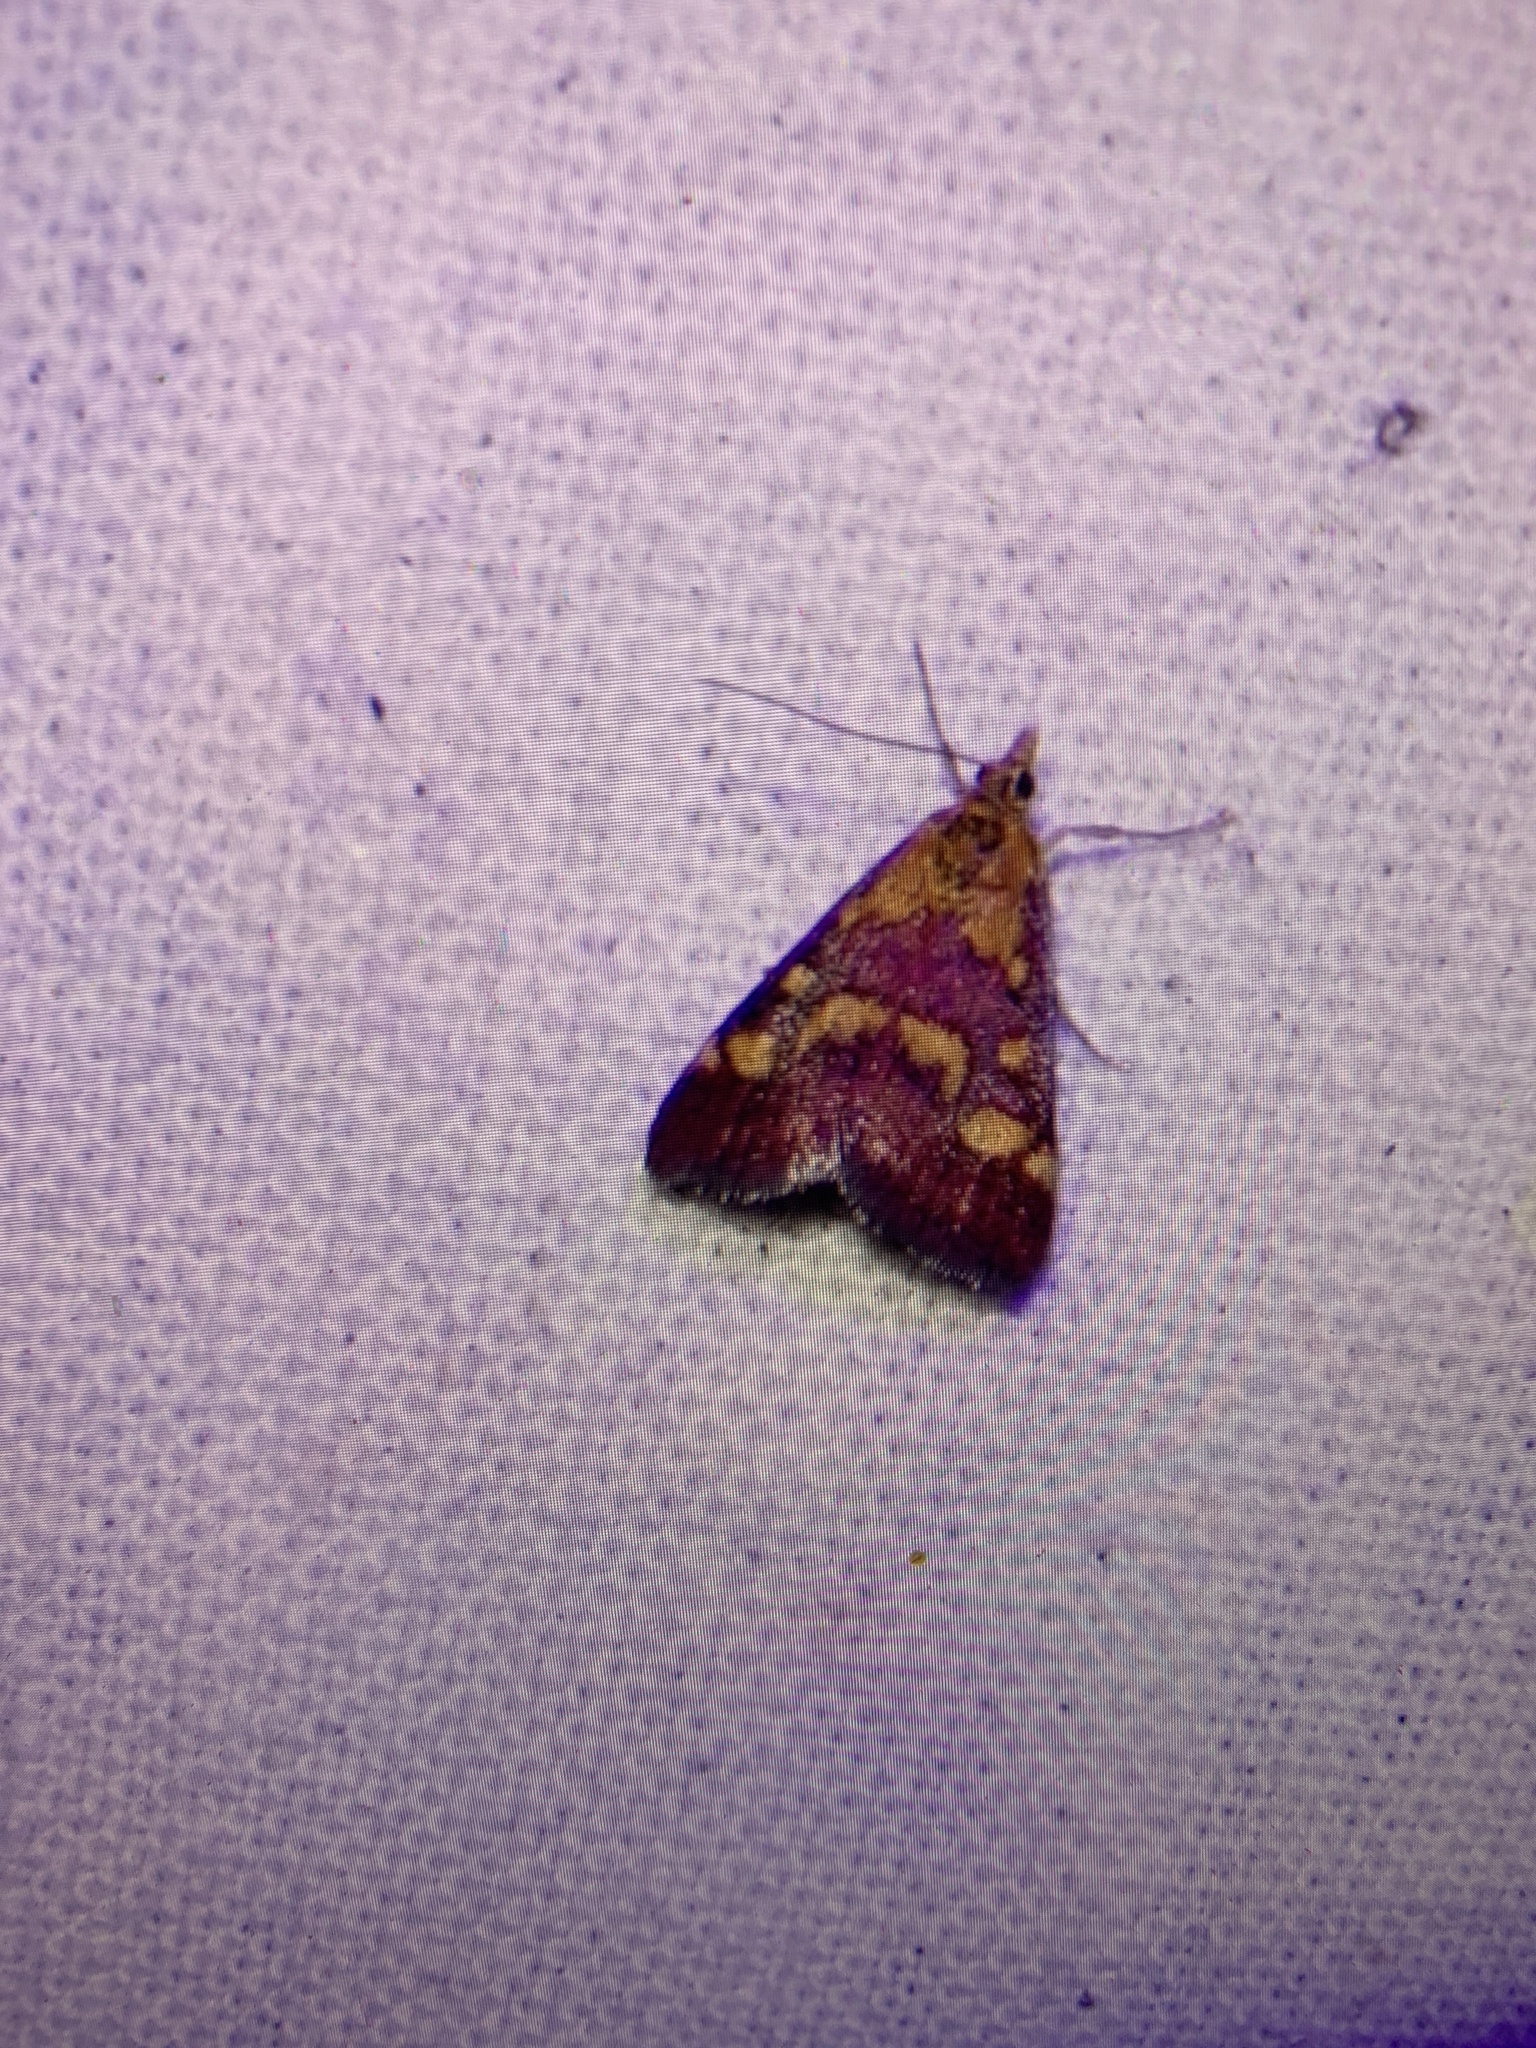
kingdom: Animalia
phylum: Arthropoda
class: Insecta
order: Lepidoptera
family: Crambidae
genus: Pyrausta
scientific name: Pyrausta purpuralis
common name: Common purple & gold
